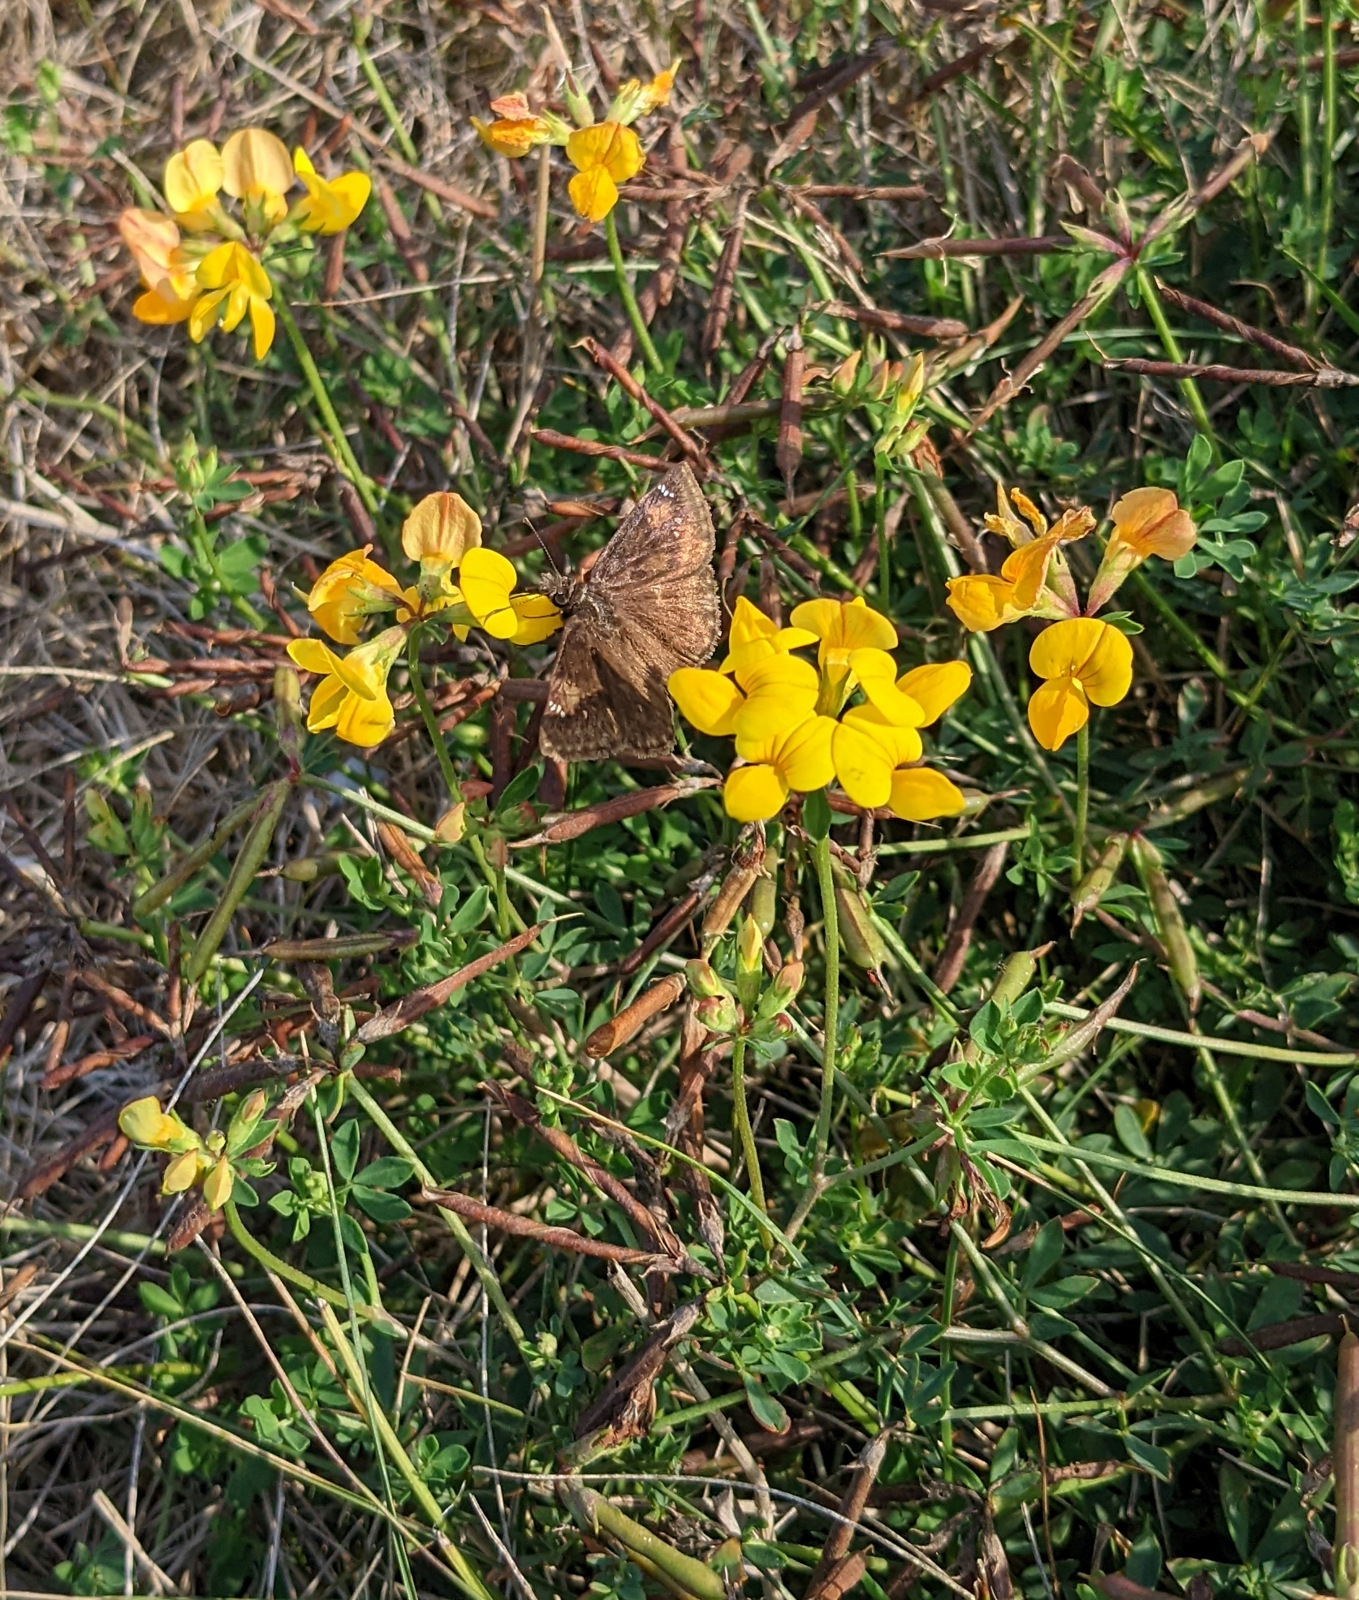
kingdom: Plantae
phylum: Tracheophyta
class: Magnoliopsida
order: Fabales
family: Fabaceae
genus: Lotus
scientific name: Lotus corniculatus
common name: Common bird's-foot-trefoil
